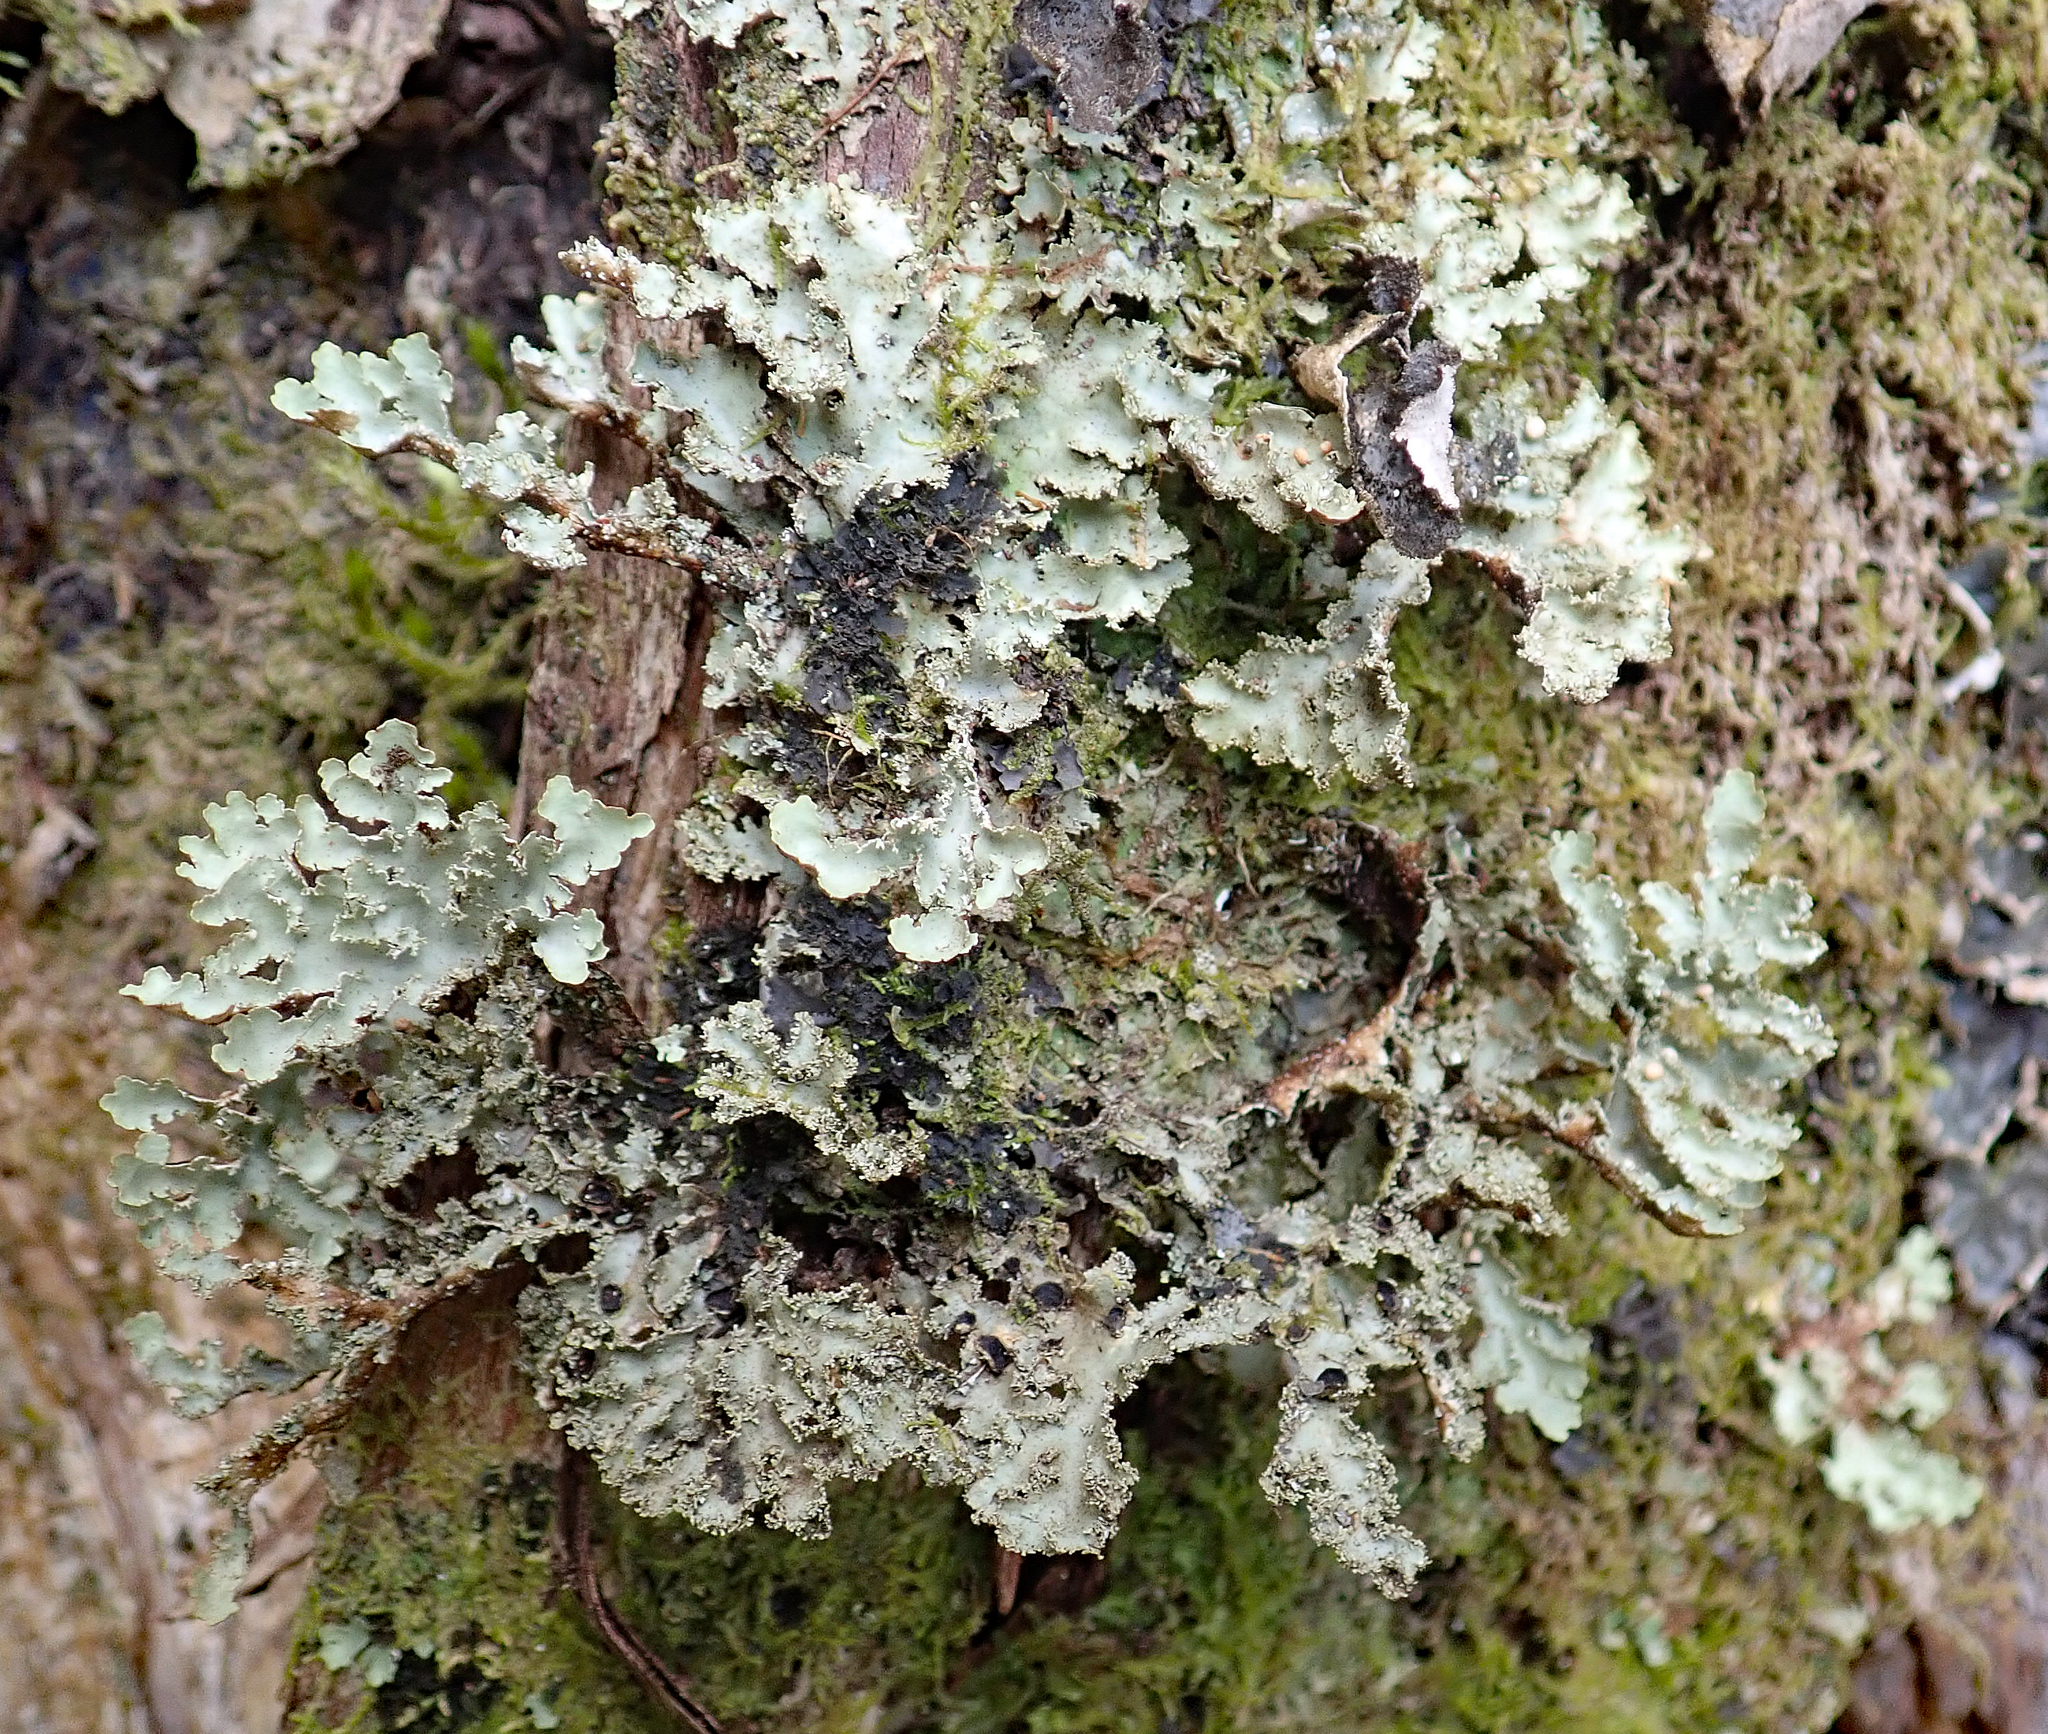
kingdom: Fungi
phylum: Ascomycota
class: Lecanoromycetes
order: Peltigerales
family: Lobariaceae
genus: Pseudocyphellaria
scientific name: Pseudocyphellaria glabra
